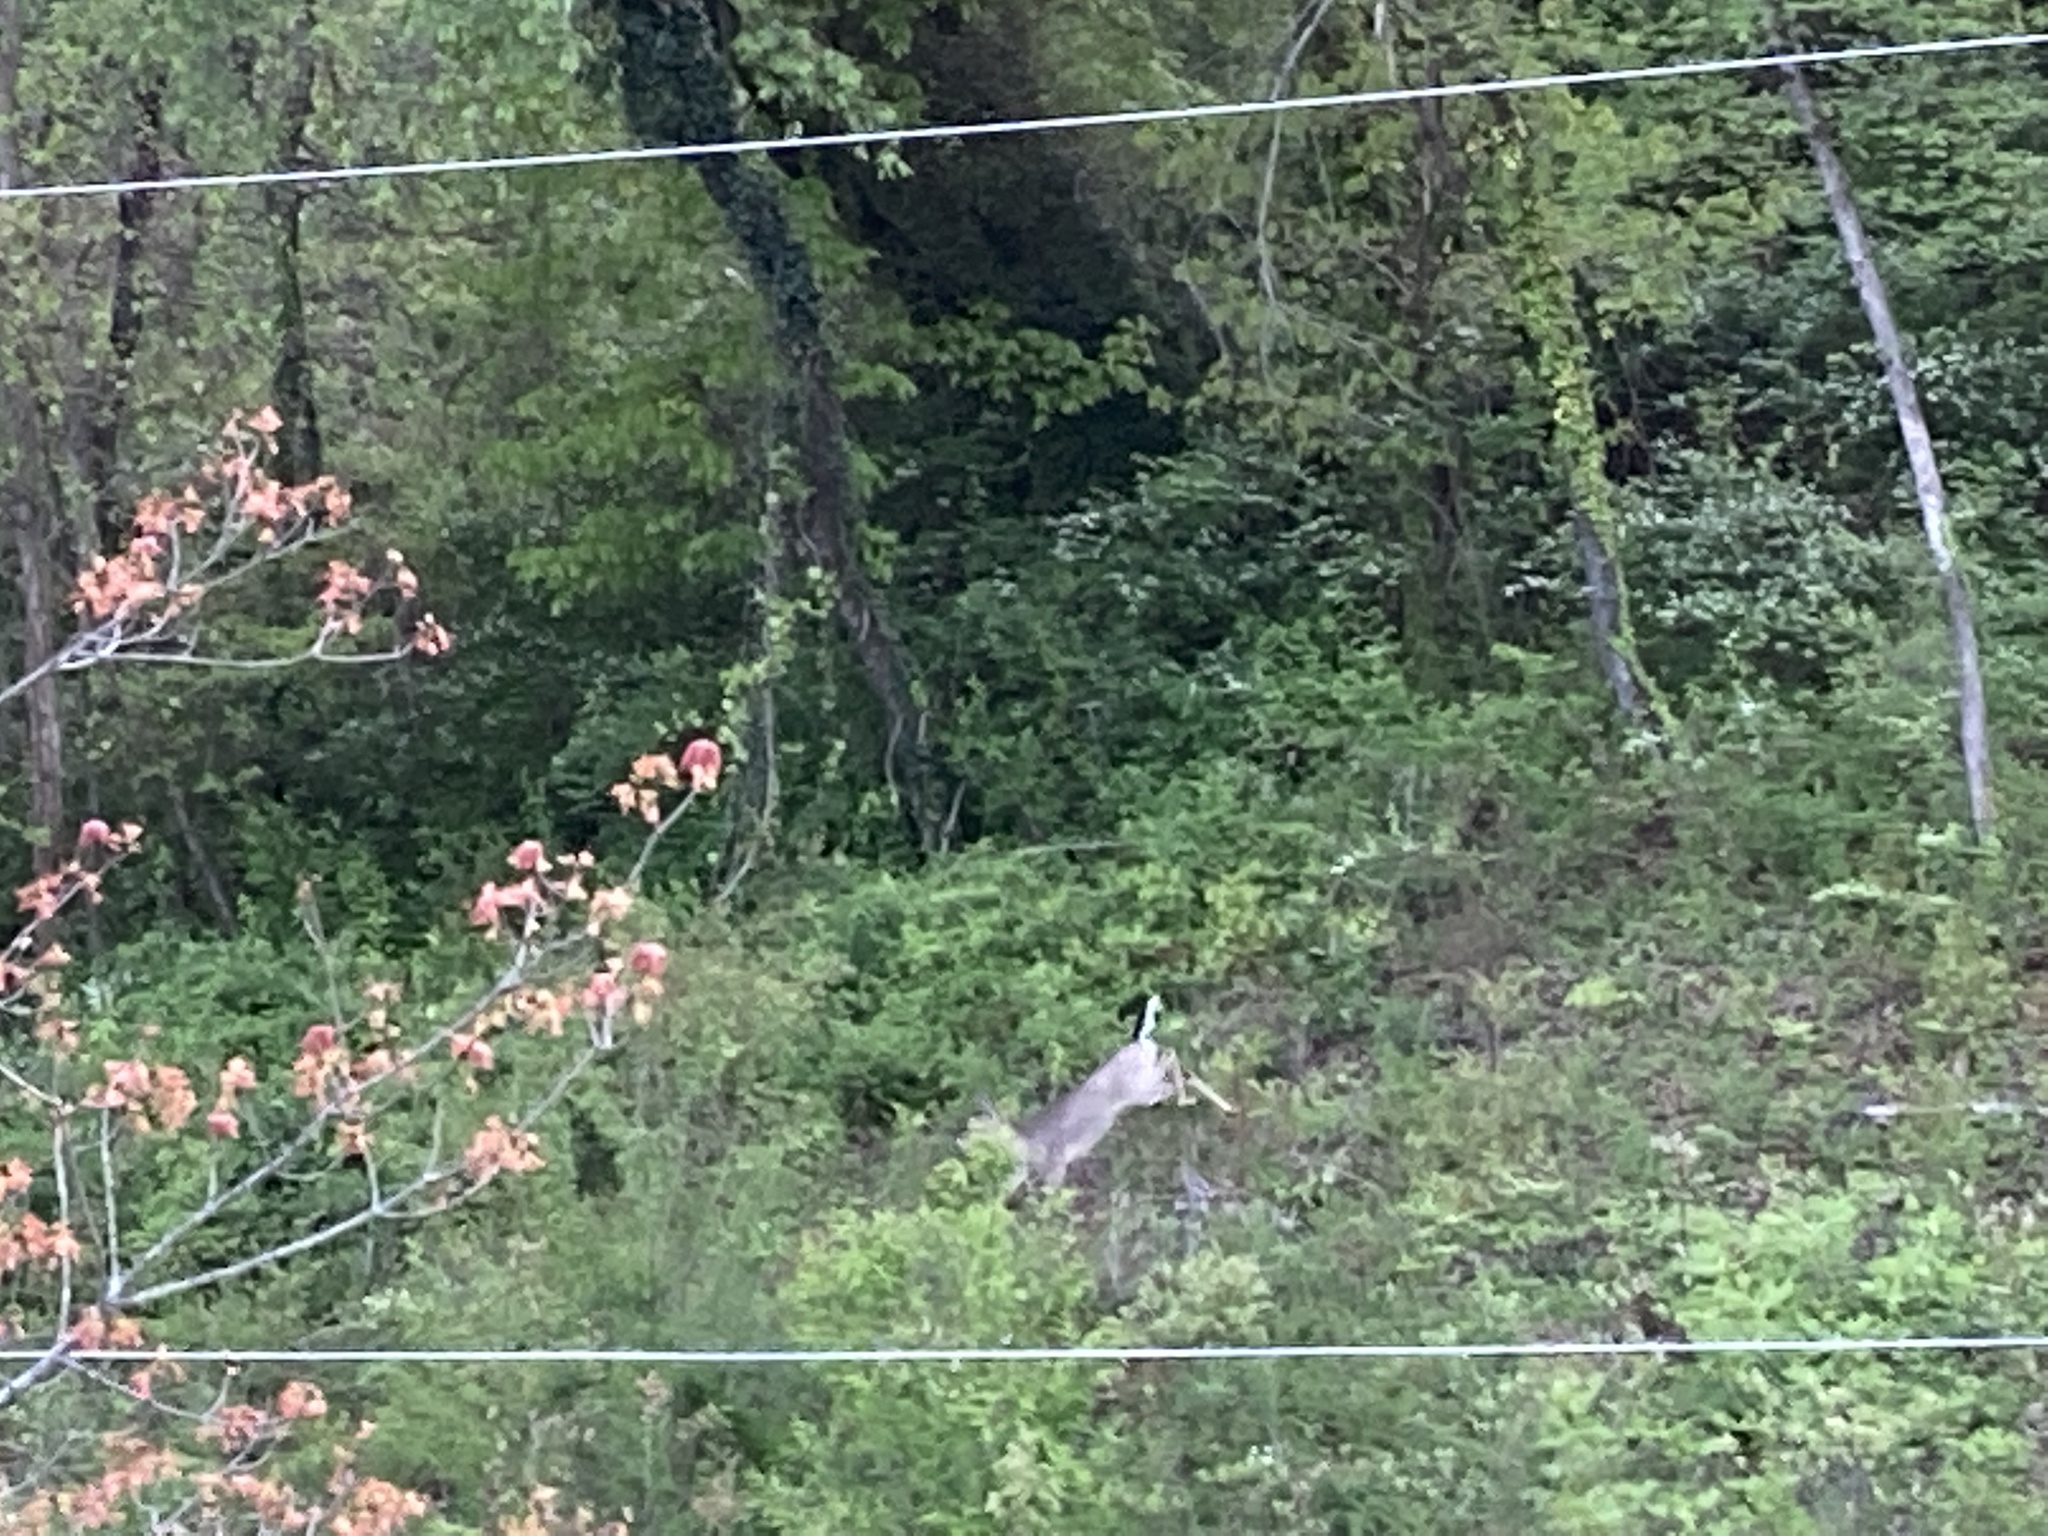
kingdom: Animalia
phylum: Chordata
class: Mammalia
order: Artiodactyla
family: Cervidae
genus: Odocoileus
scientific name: Odocoileus virginianus
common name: White-tailed deer
